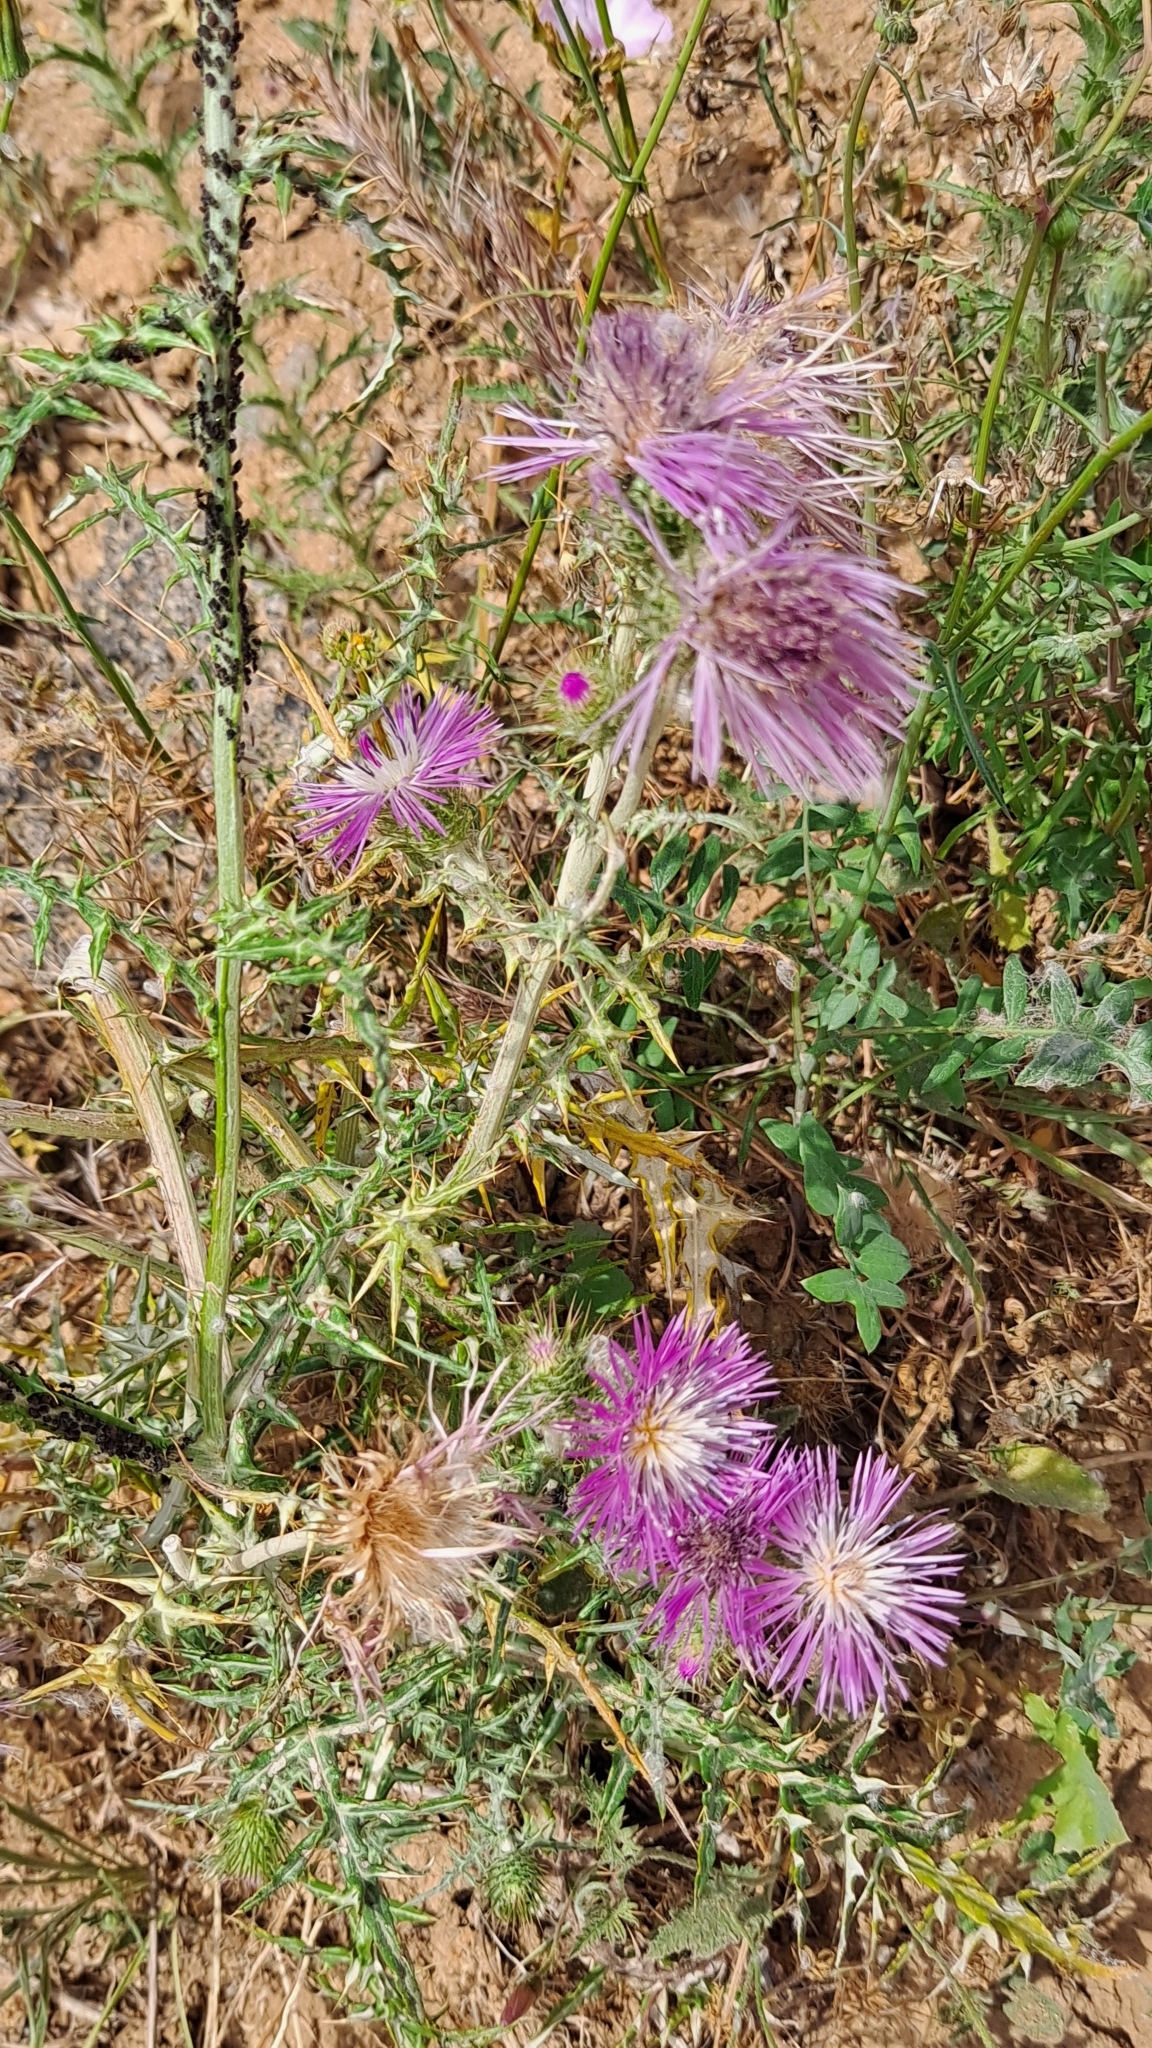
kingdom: Plantae
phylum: Tracheophyta
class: Magnoliopsida
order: Asterales
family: Asteraceae
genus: Galactites
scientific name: Galactites tomentosa
